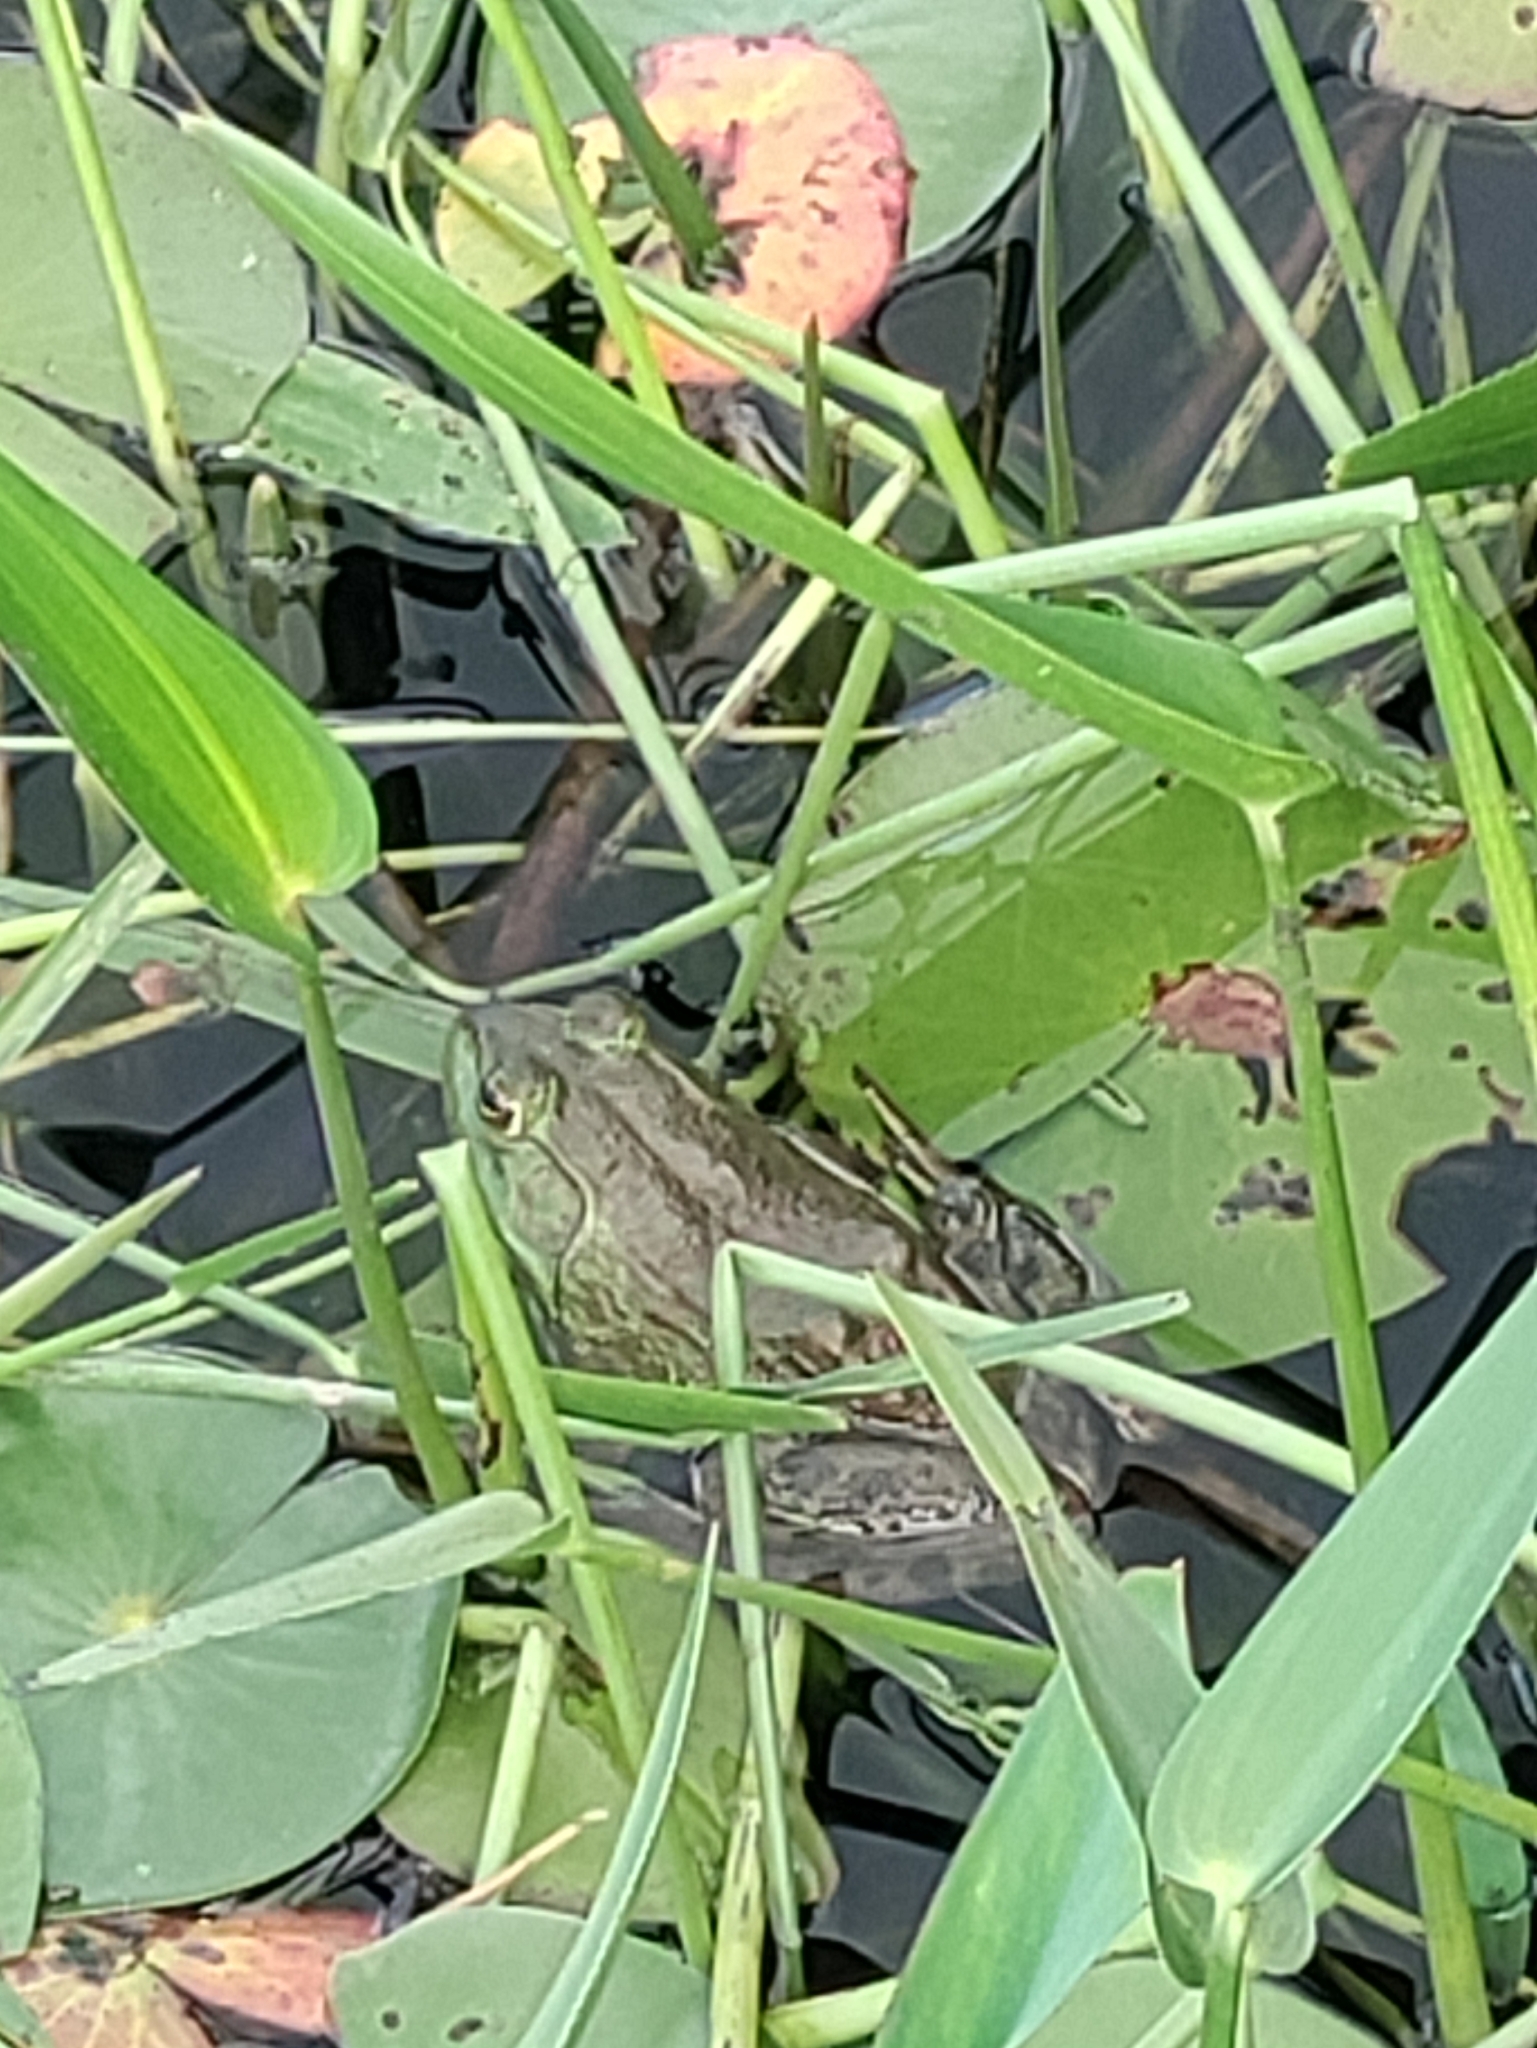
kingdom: Animalia
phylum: Chordata
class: Amphibia
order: Anura
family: Ranidae
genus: Lithobates
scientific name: Lithobates catesbeianus
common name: American bullfrog
